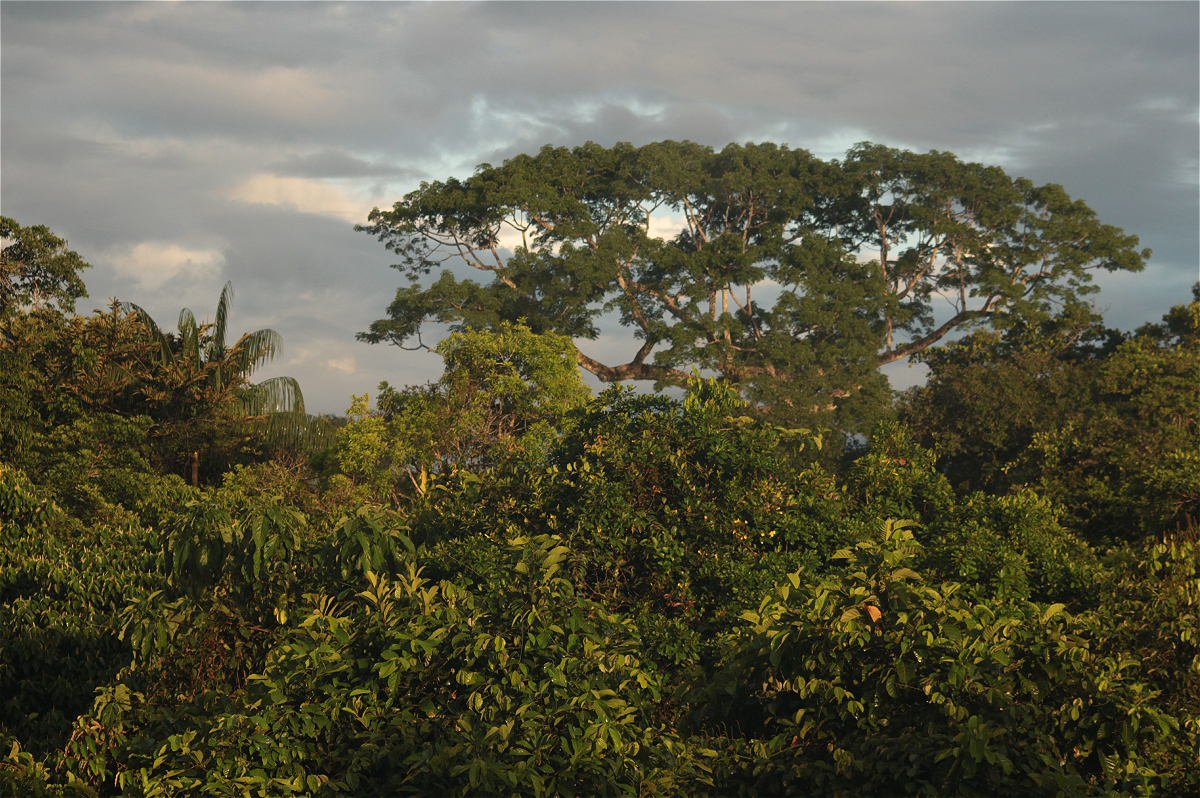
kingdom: Plantae
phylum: Tracheophyta
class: Magnoliopsida
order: Malvales
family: Malvaceae
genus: Ceiba
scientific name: Ceiba pentandra
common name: Kapok
